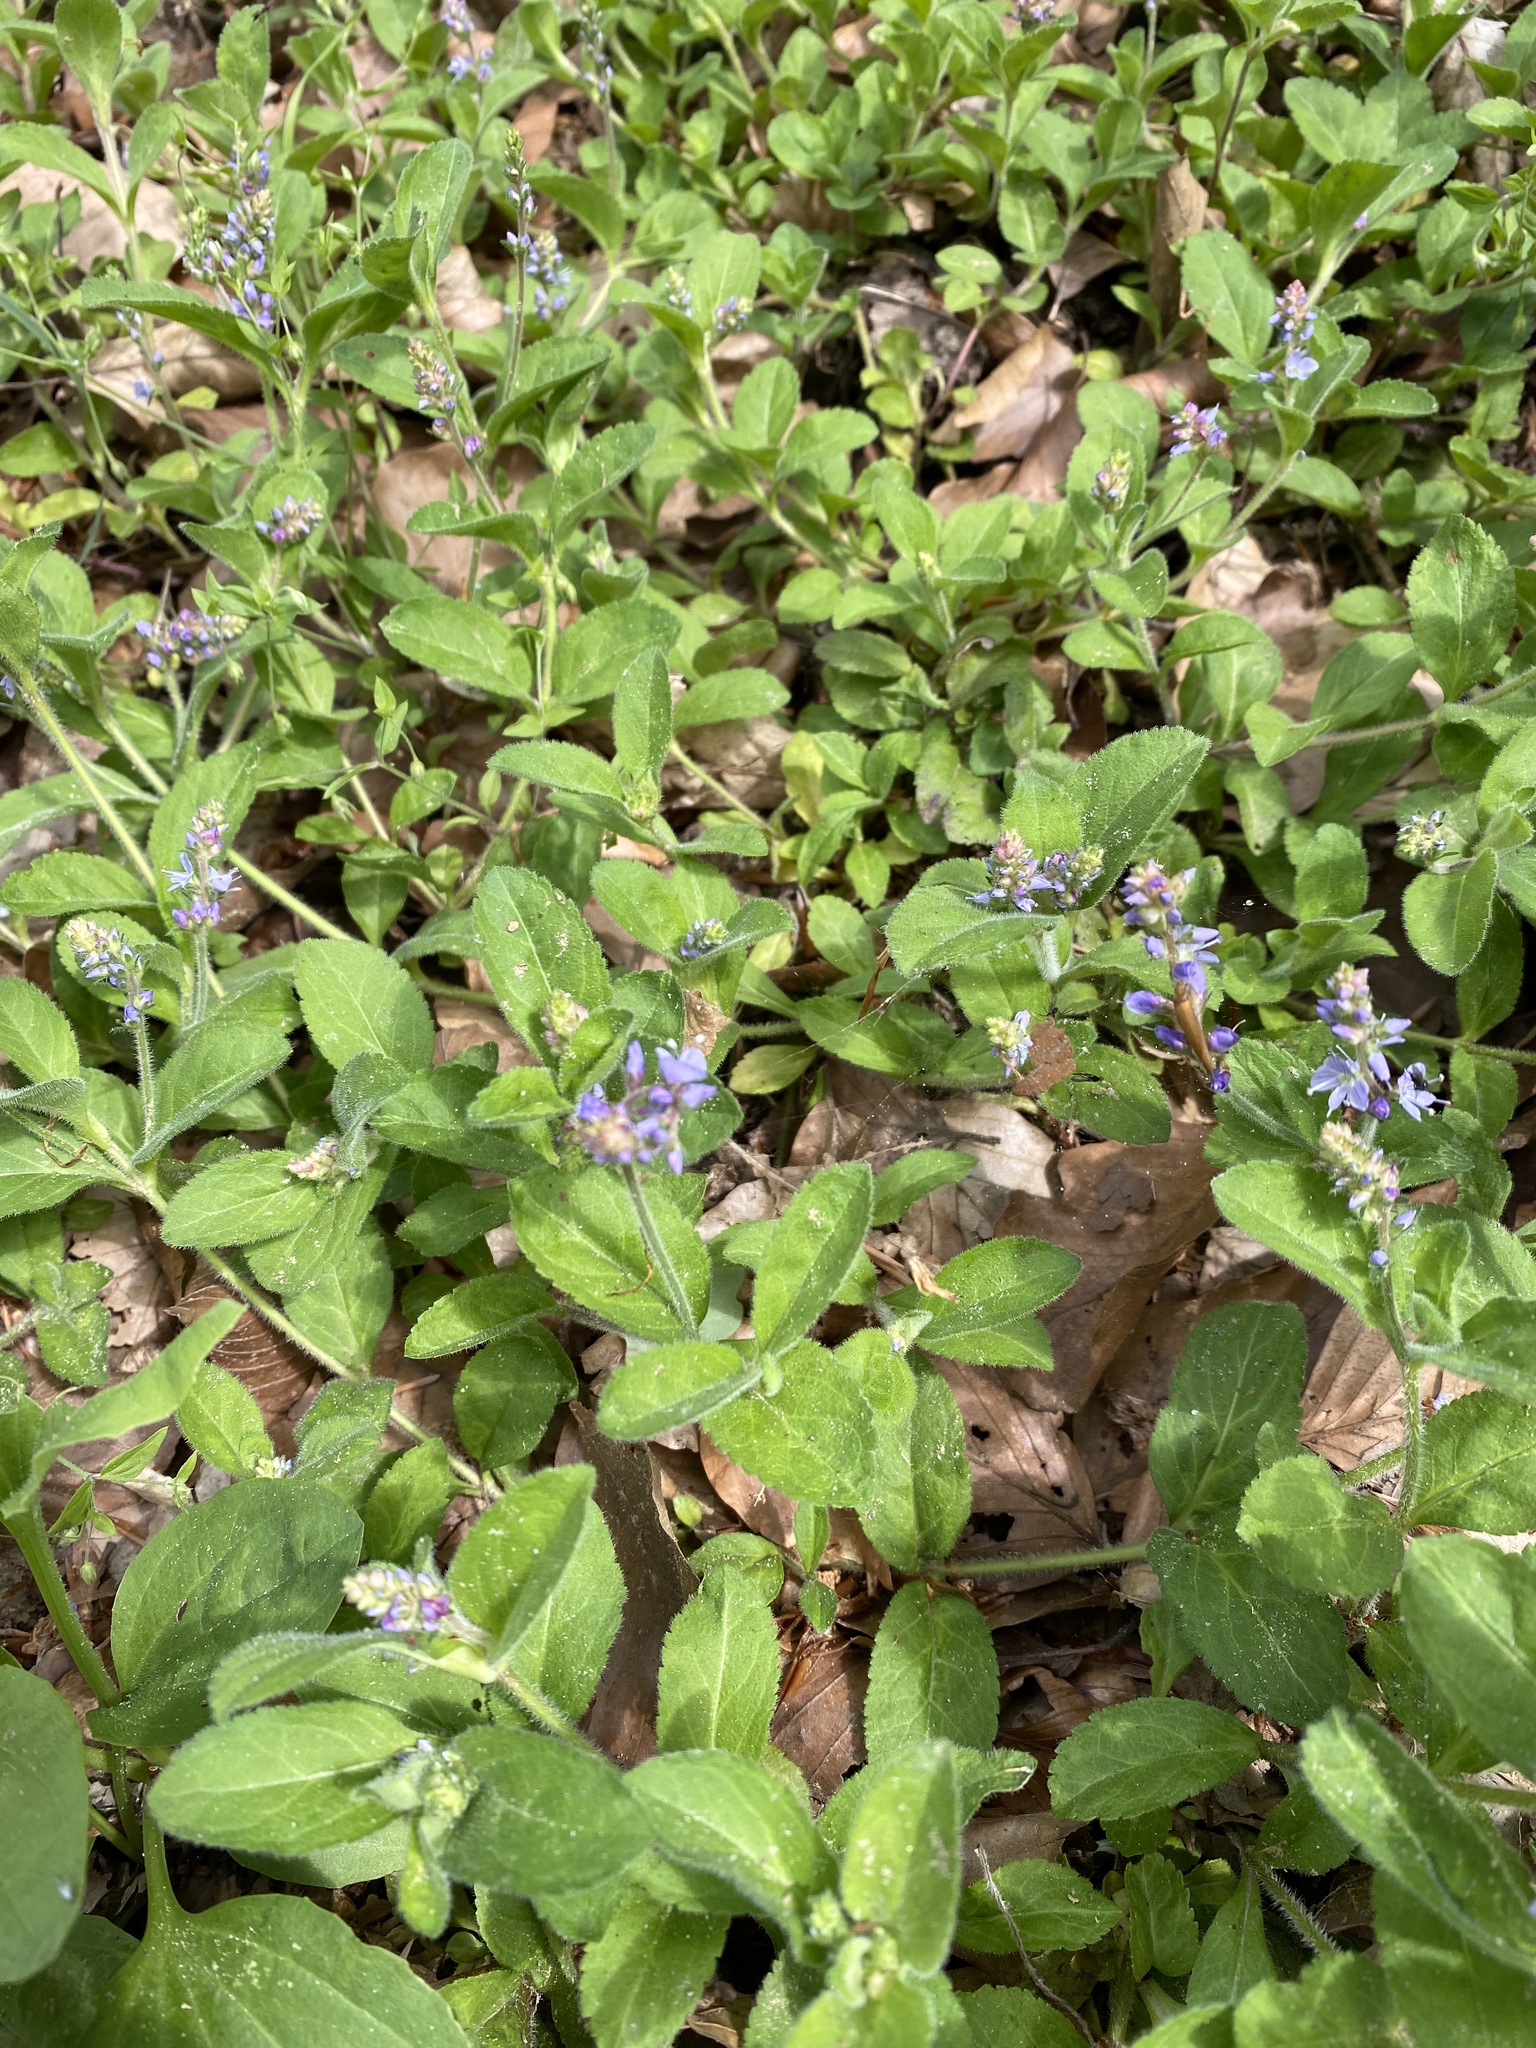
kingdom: Plantae
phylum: Tracheophyta
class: Magnoliopsida
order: Lamiales
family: Plantaginaceae
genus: Veronica
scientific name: Veronica officinalis
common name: Common speedwell
